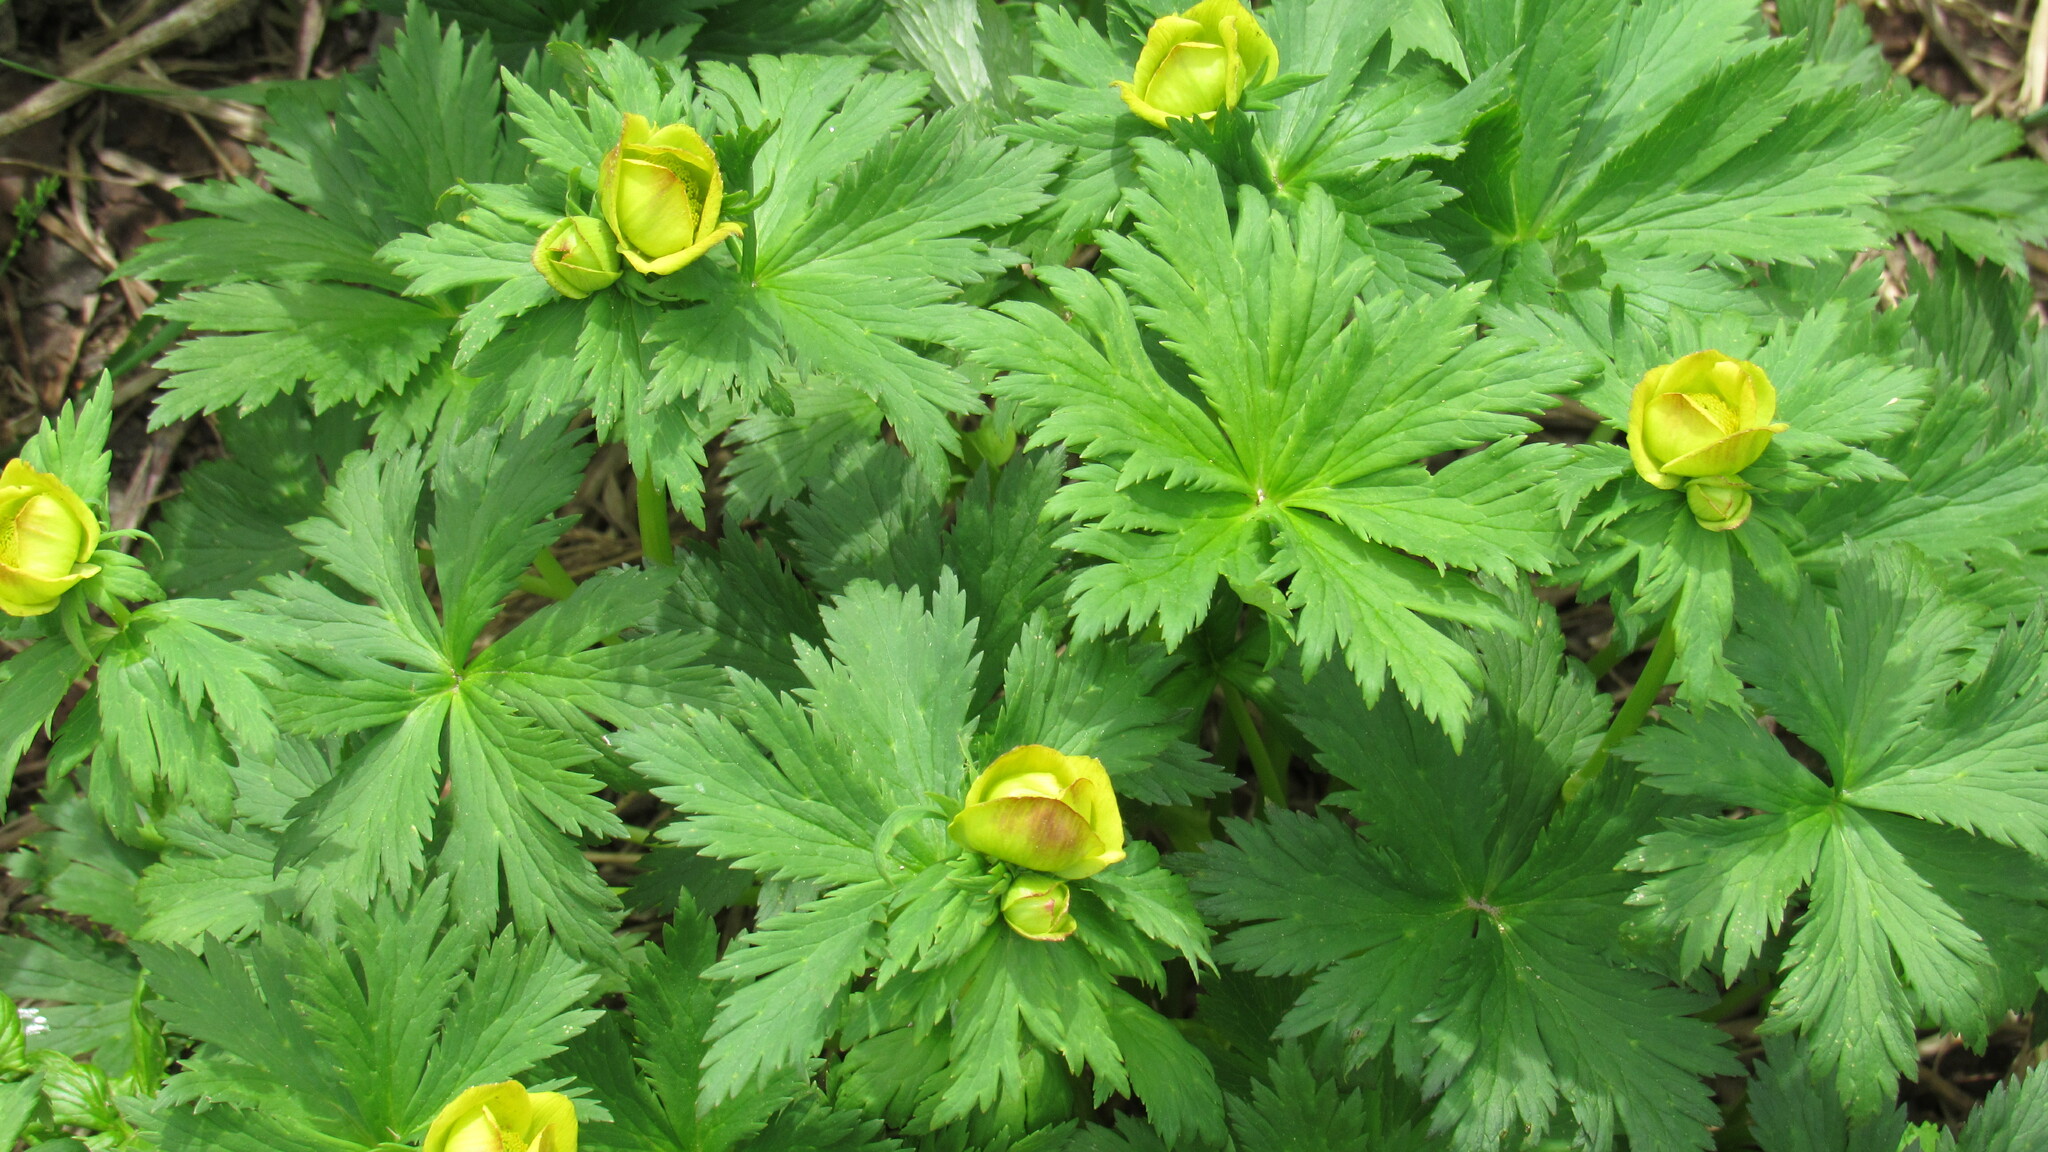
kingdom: Plantae
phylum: Tracheophyta
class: Magnoliopsida
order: Ranunculales
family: Ranunculaceae
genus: Trollius
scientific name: Trollius riederianus
